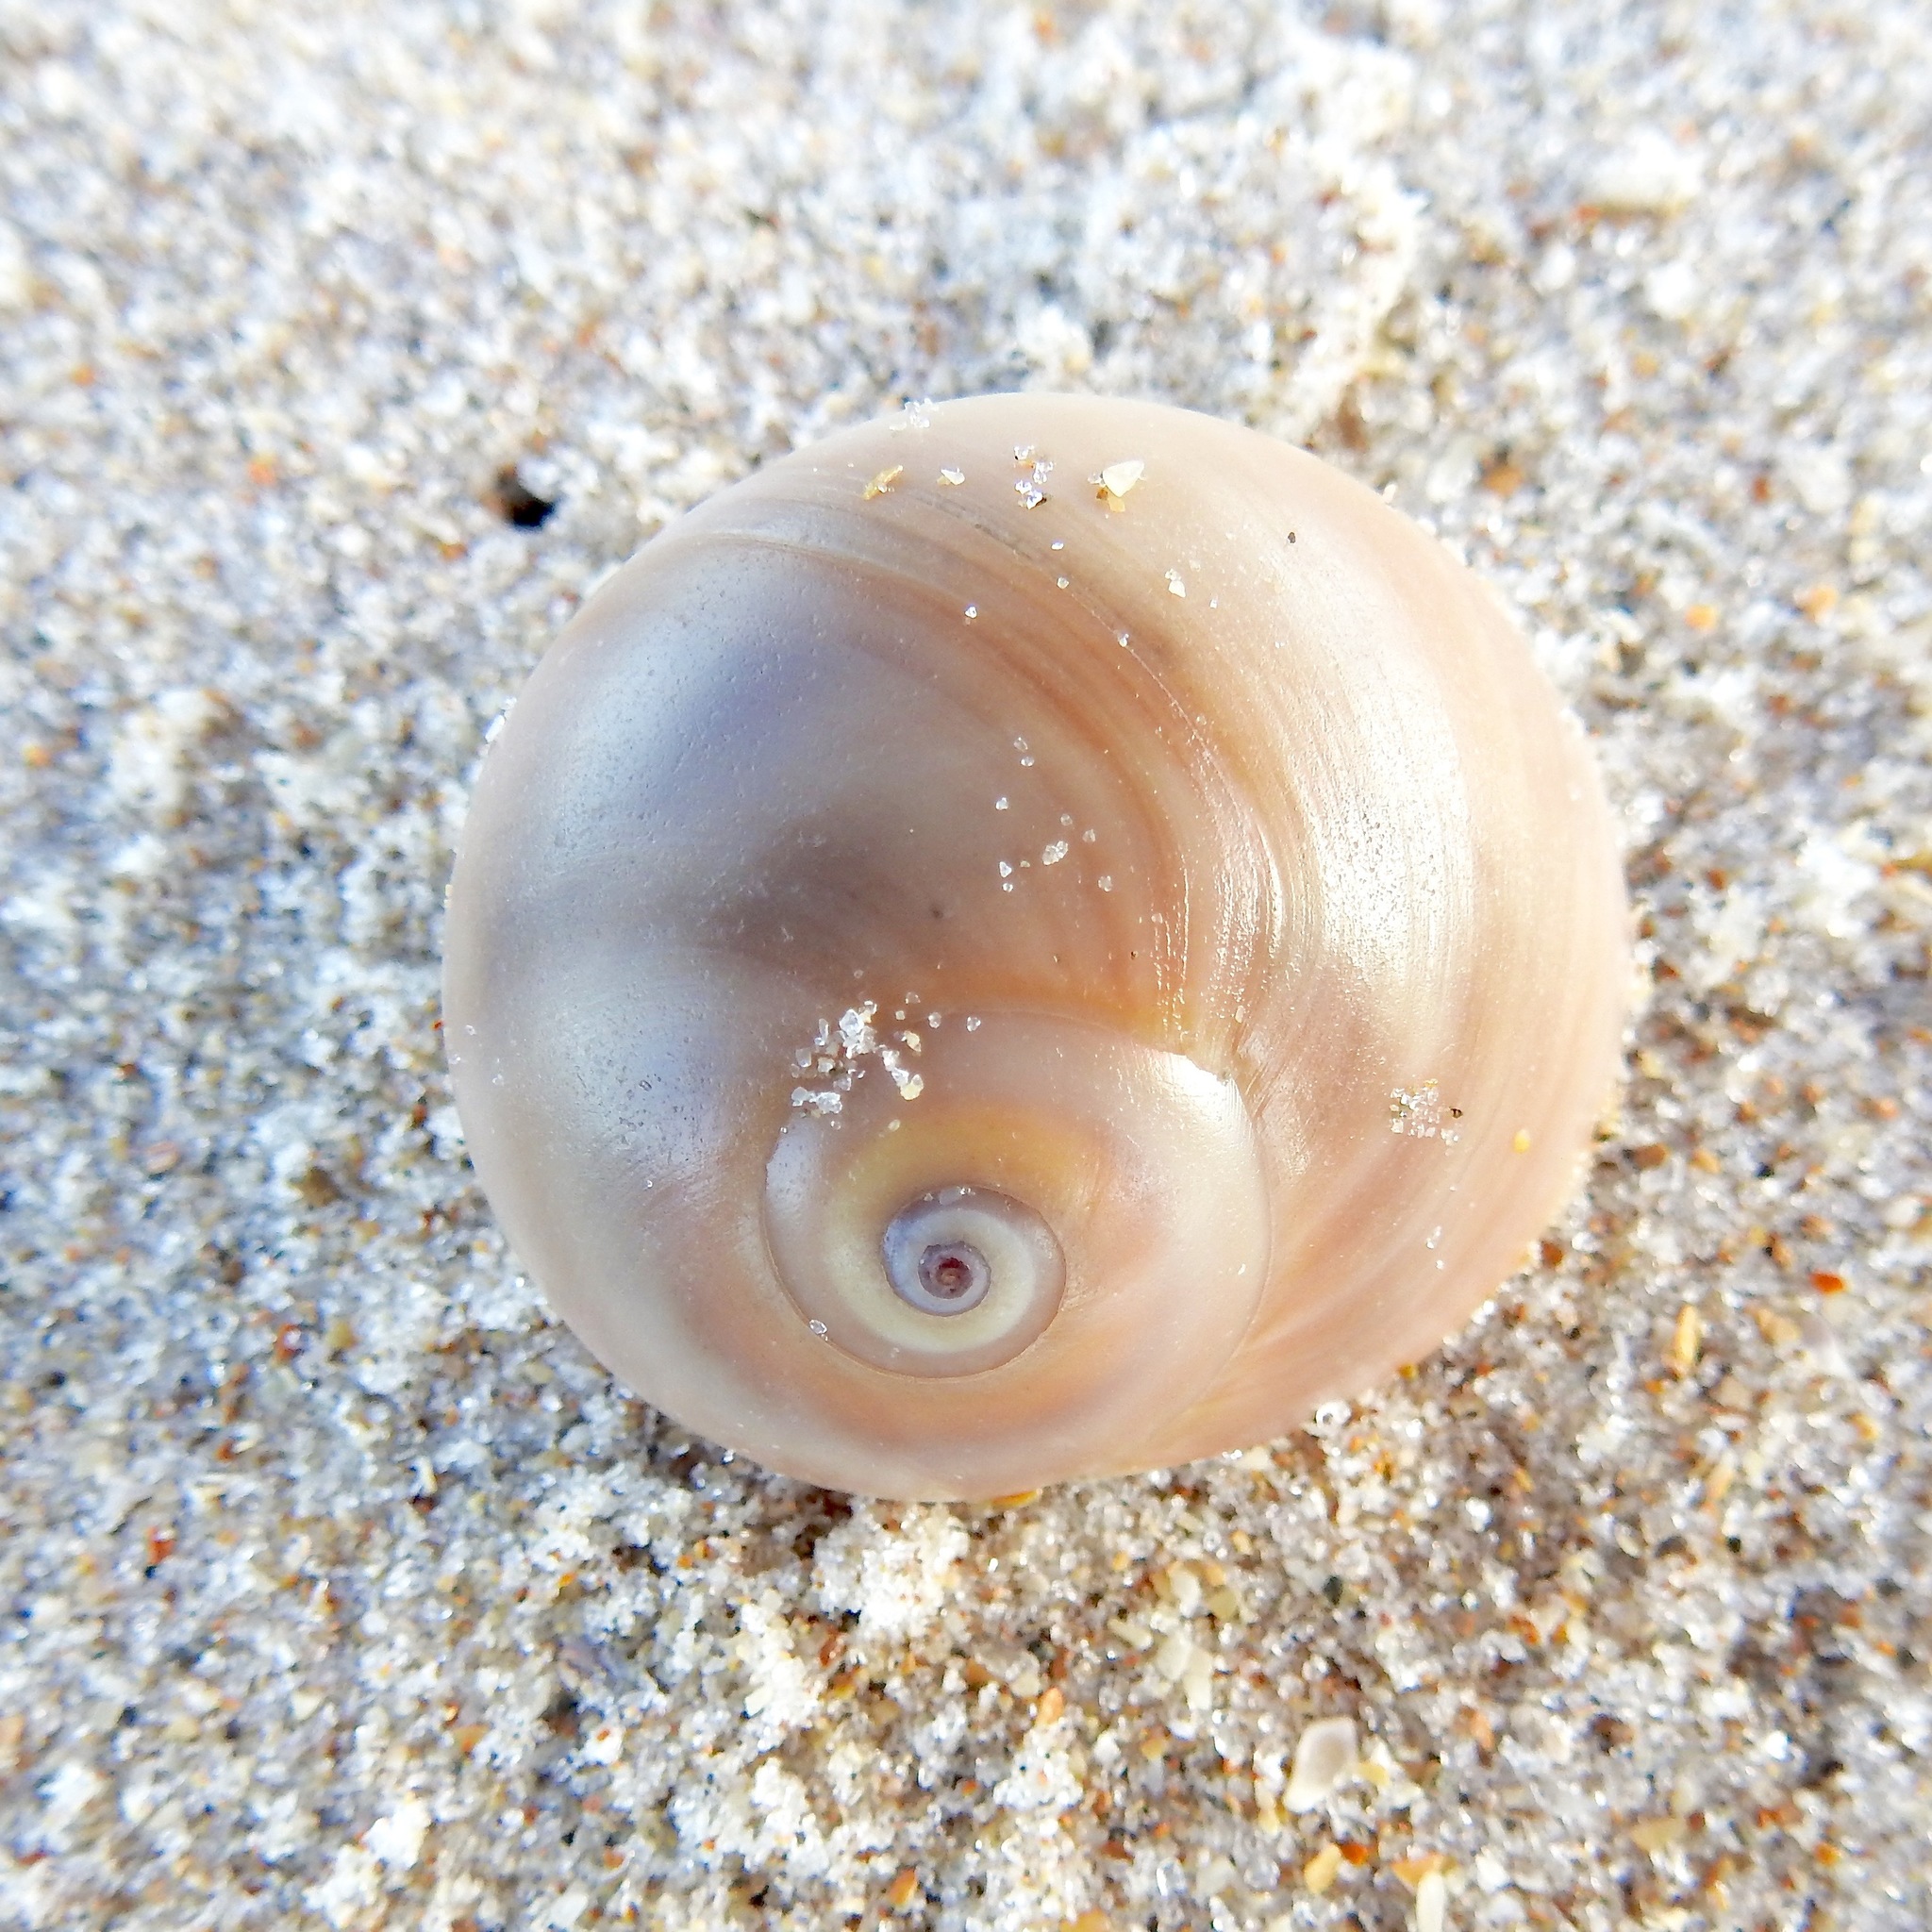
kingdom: Animalia
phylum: Mollusca
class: Gastropoda
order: Littorinimorpha
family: Naticidae
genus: Neverita
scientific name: Neverita duplicata
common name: Lobed moonsnail
